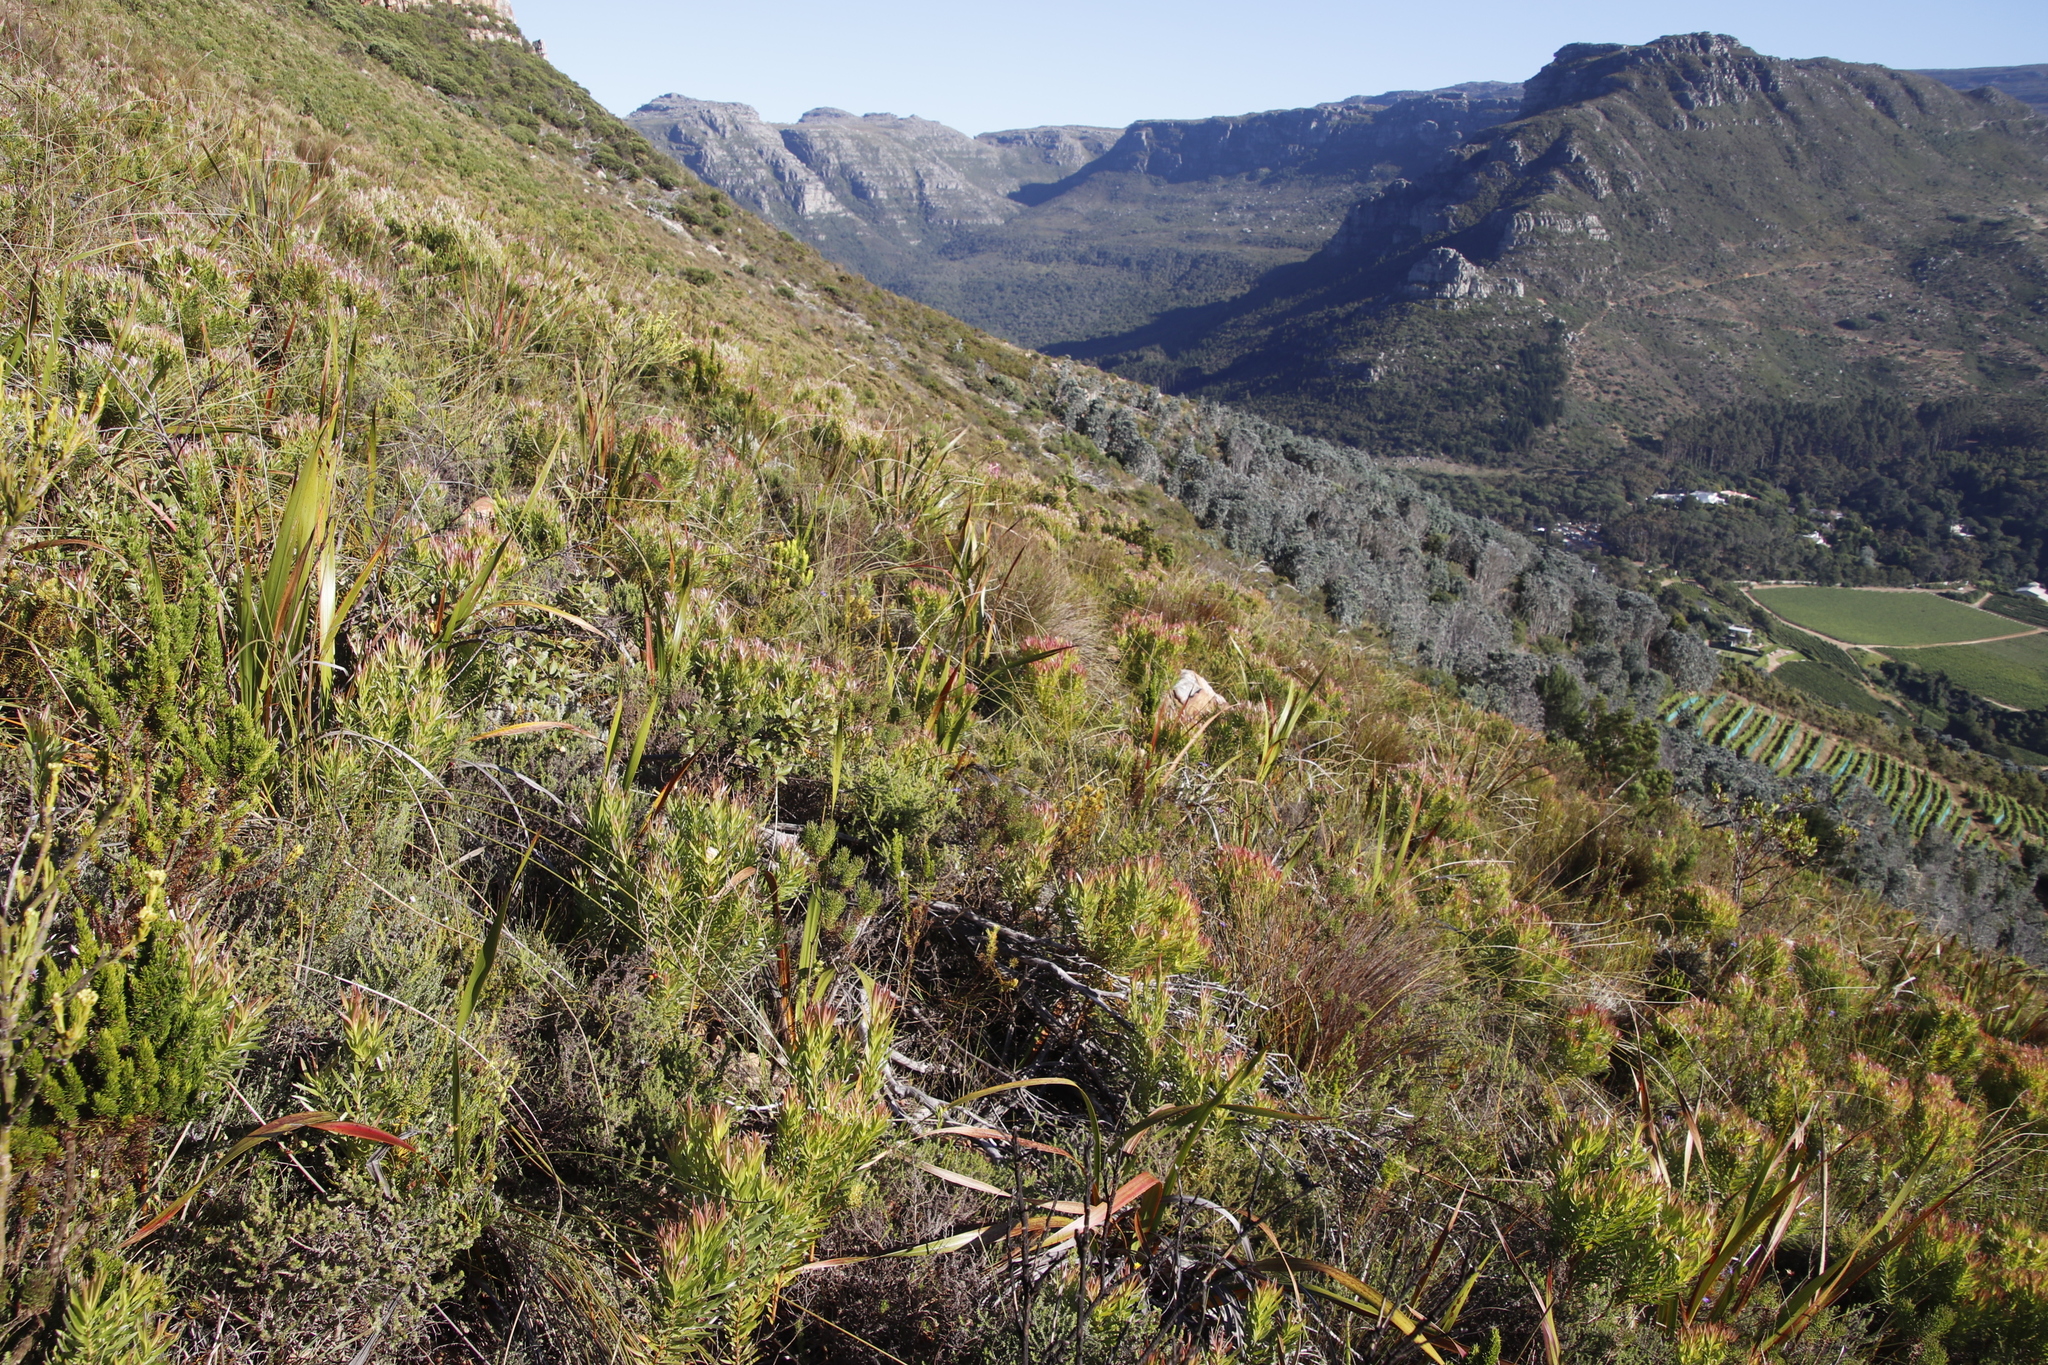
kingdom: Plantae
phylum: Tracheophyta
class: Magnoliopsida
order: Proteales
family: Proteaceae
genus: Leucadendron
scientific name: Leucadendron xanthoconus
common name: Sickle-leaf conebush
